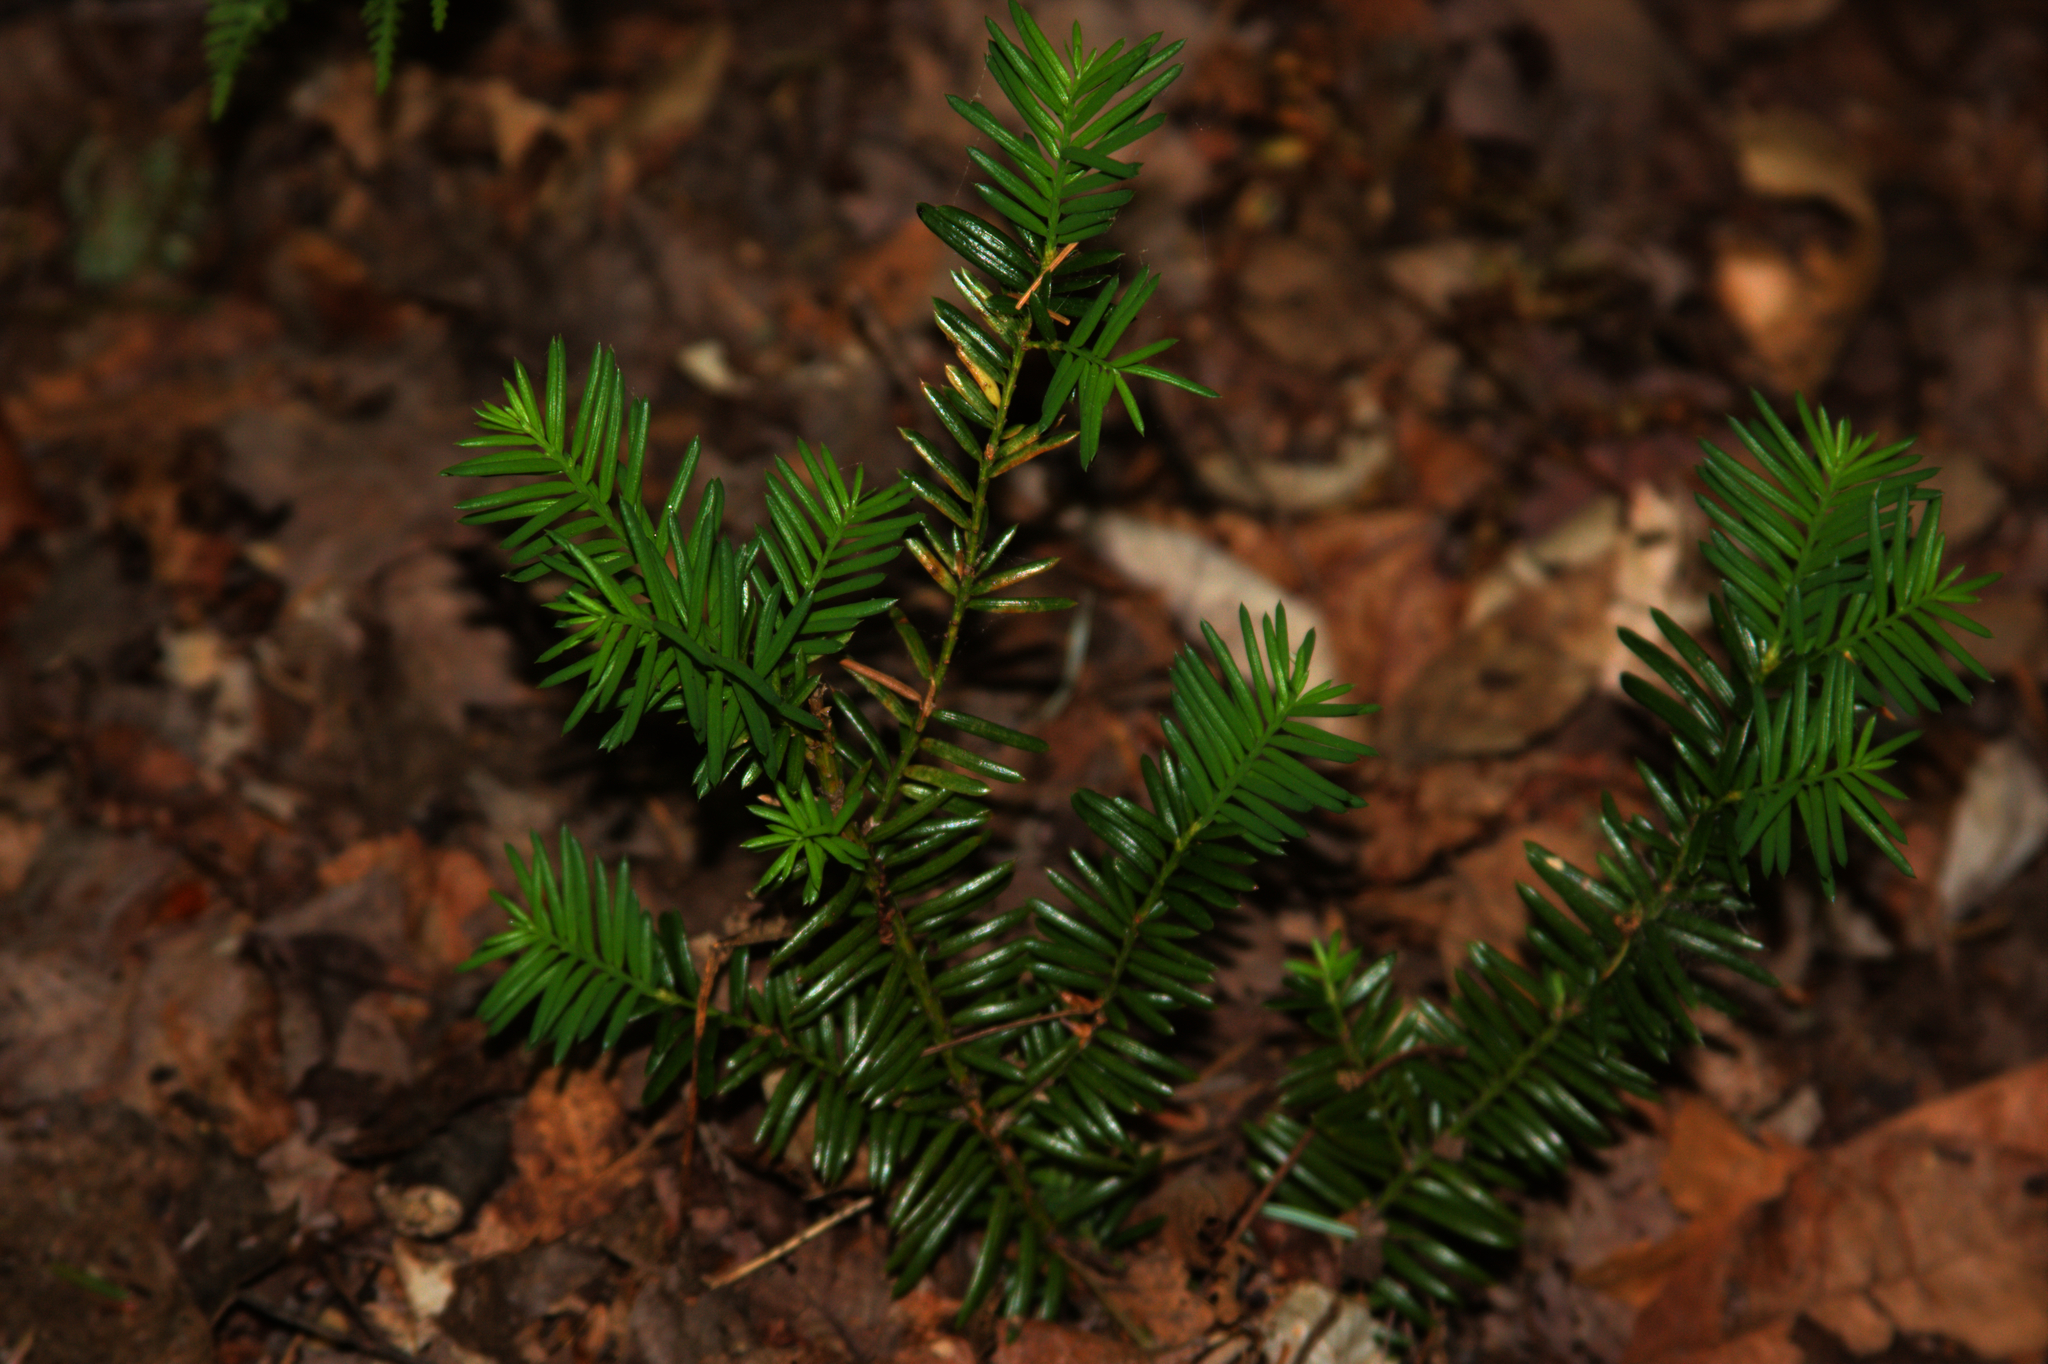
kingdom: Plantae
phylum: Tracheophyta
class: Pinopsida
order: Pinales
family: Taxaceae
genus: Taxus
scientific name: Taxus canadensis
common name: American yew
